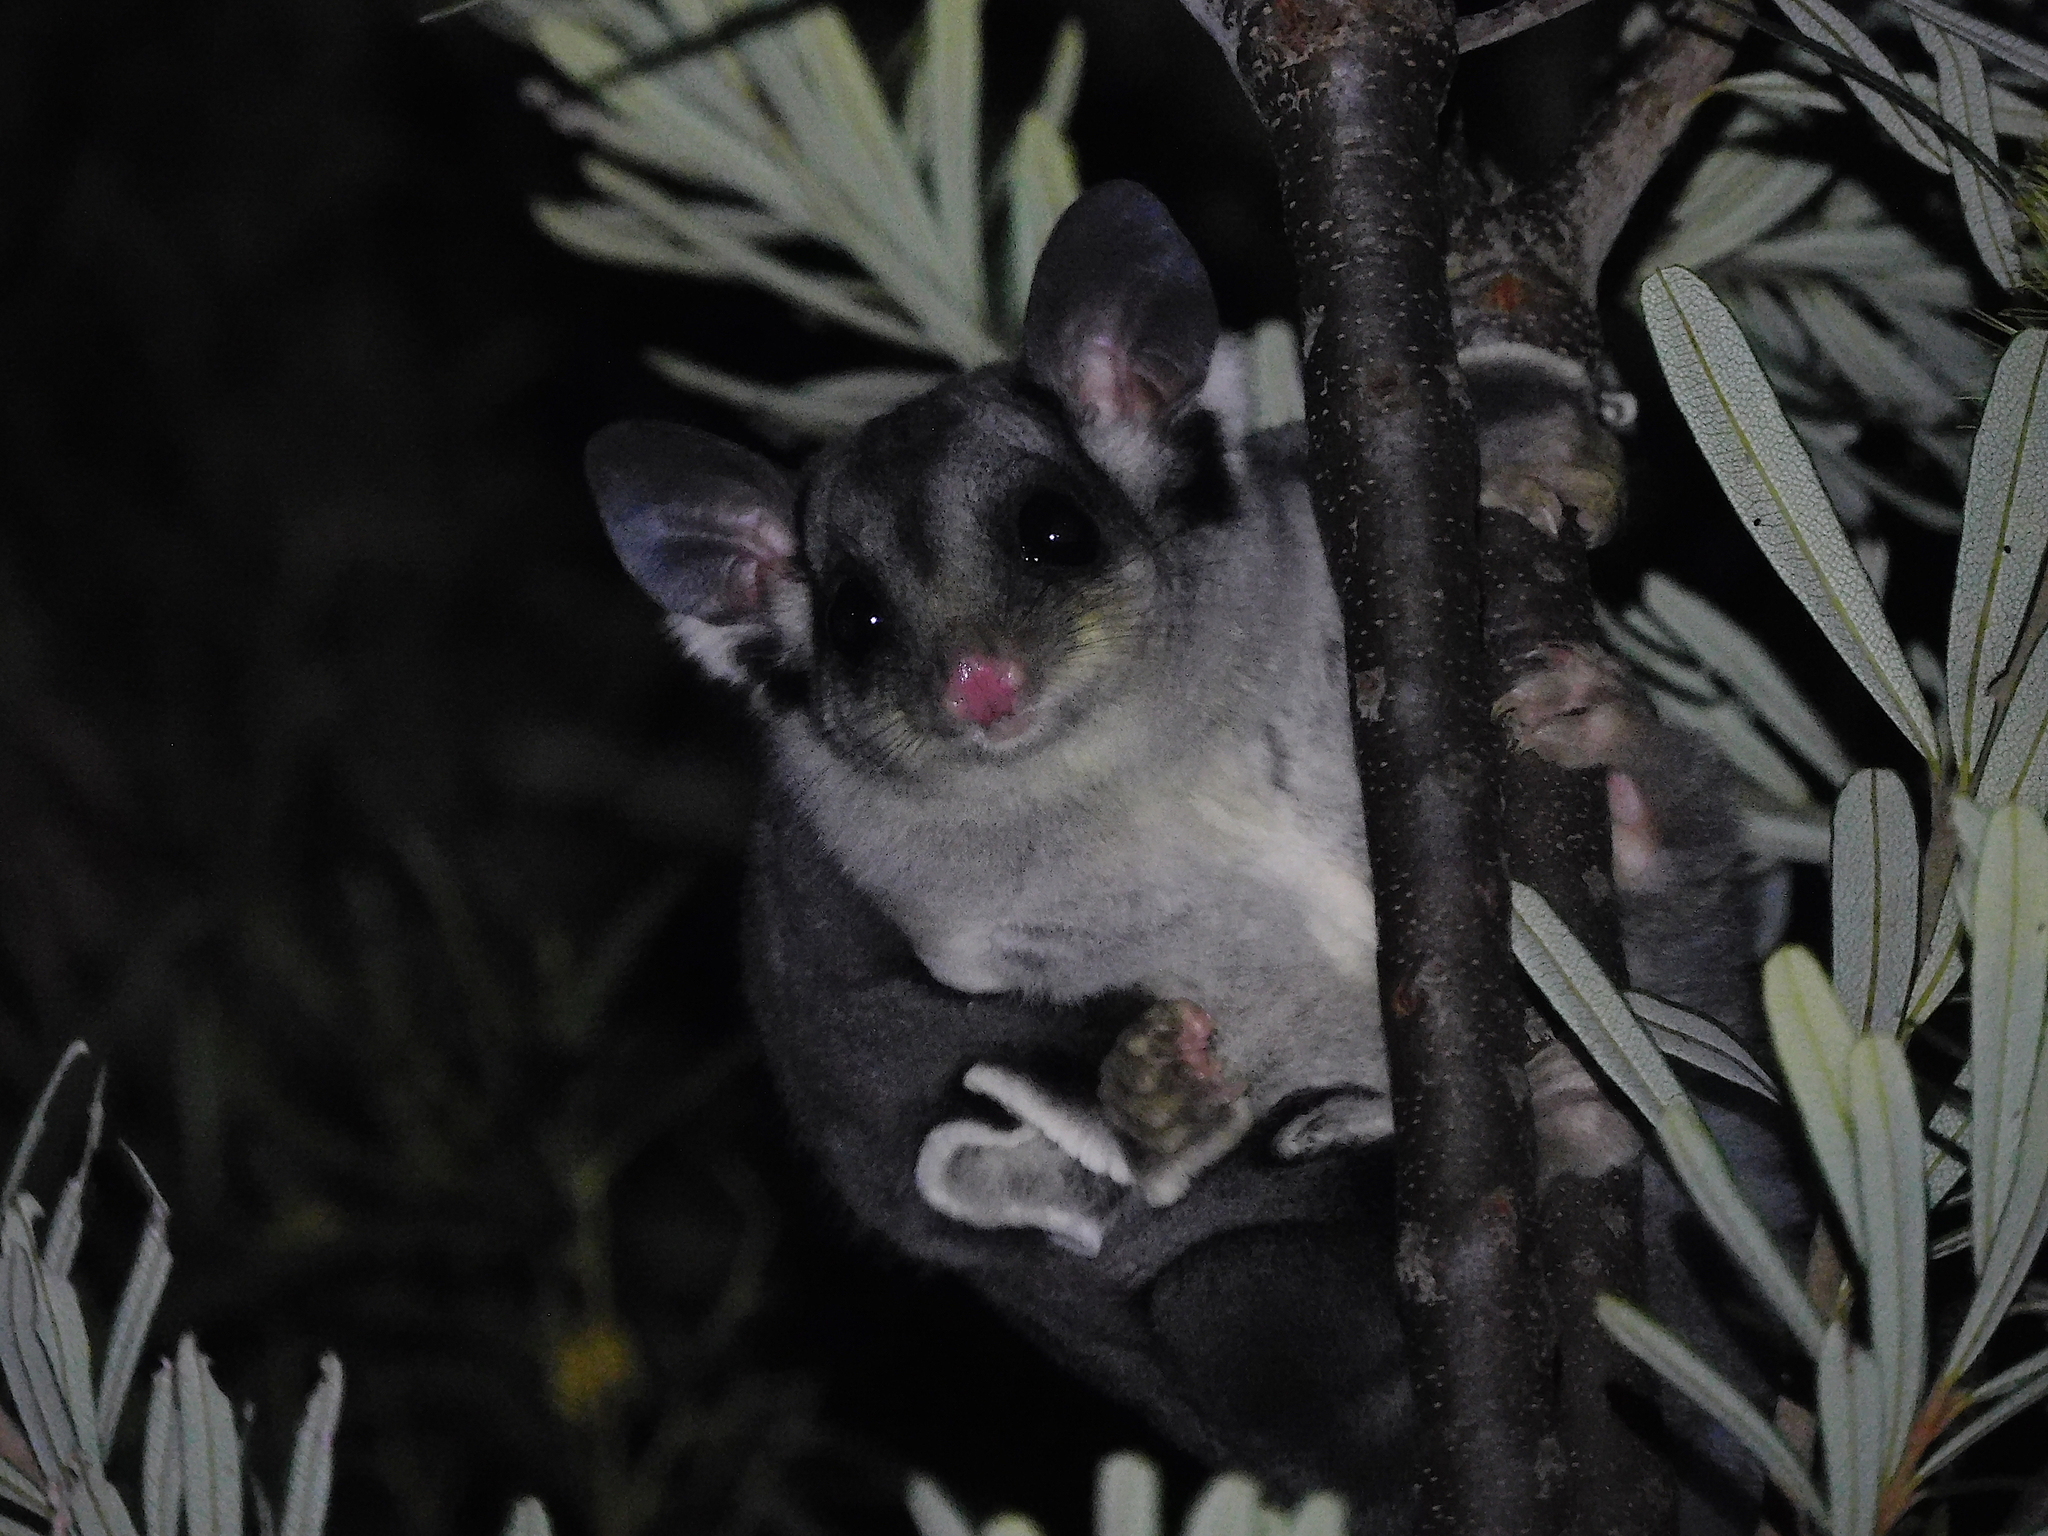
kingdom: Animalia
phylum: Chordata
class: Mammalia
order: Diprotodontia
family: Petauridae
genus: Petaurus
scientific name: Petaurus breviceps
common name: Sugar glider
